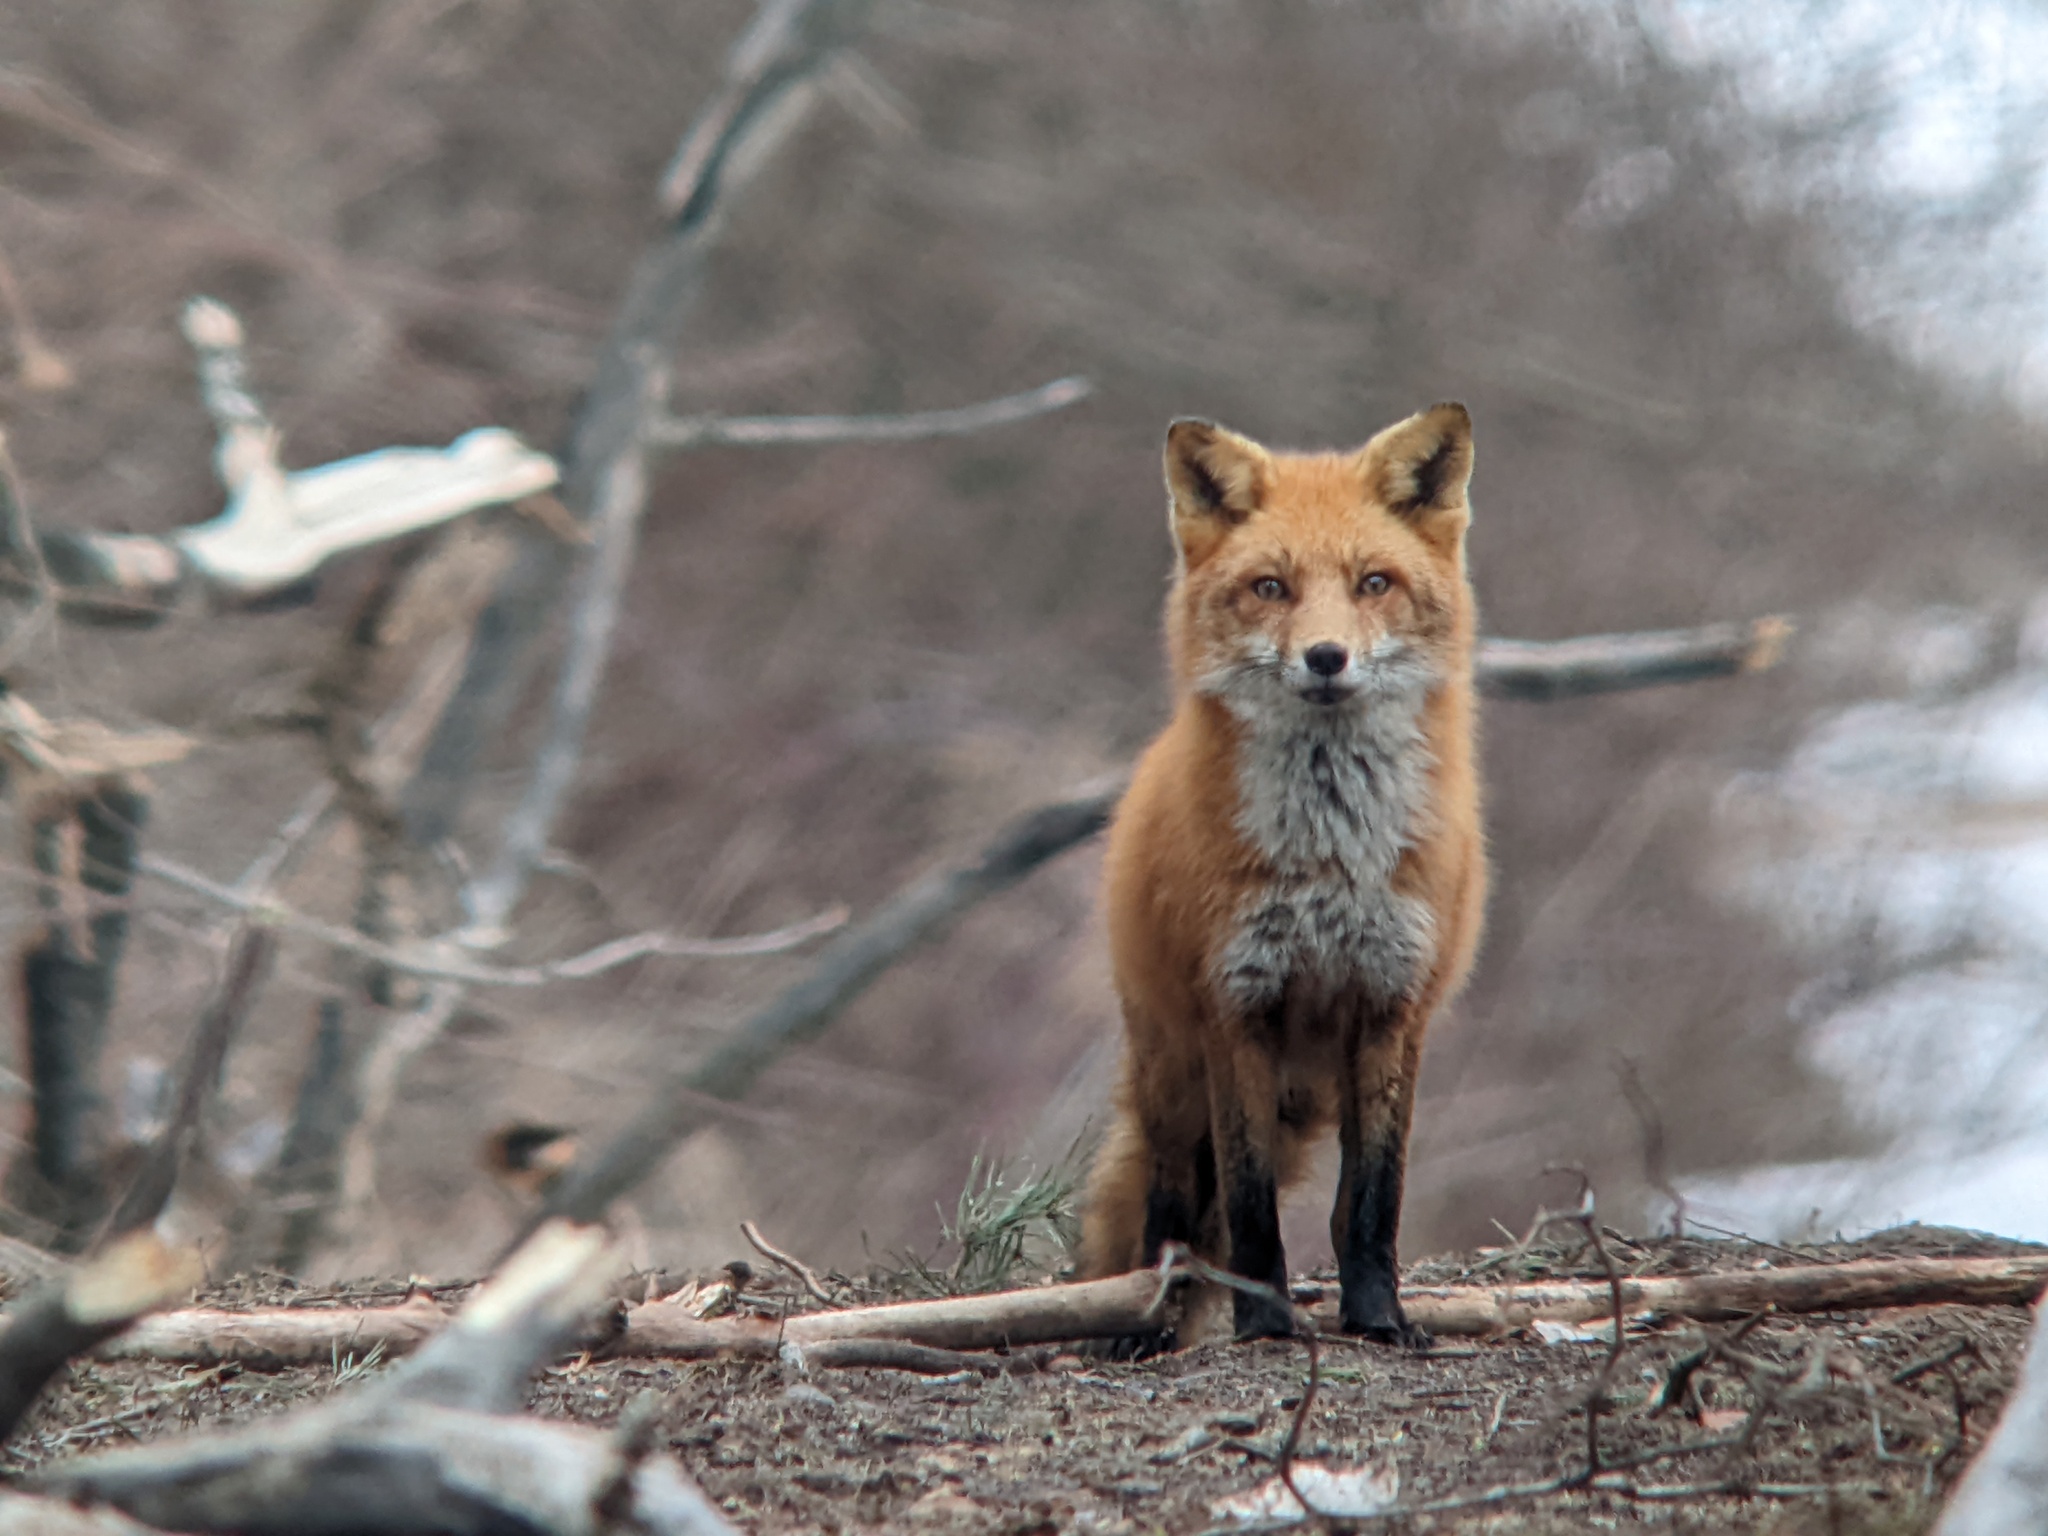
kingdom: Animalia
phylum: Chordata
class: Mammalia
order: Carnivora
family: Canidae
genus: Vulpes
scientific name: Vulpes vulpes
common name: Red fox
